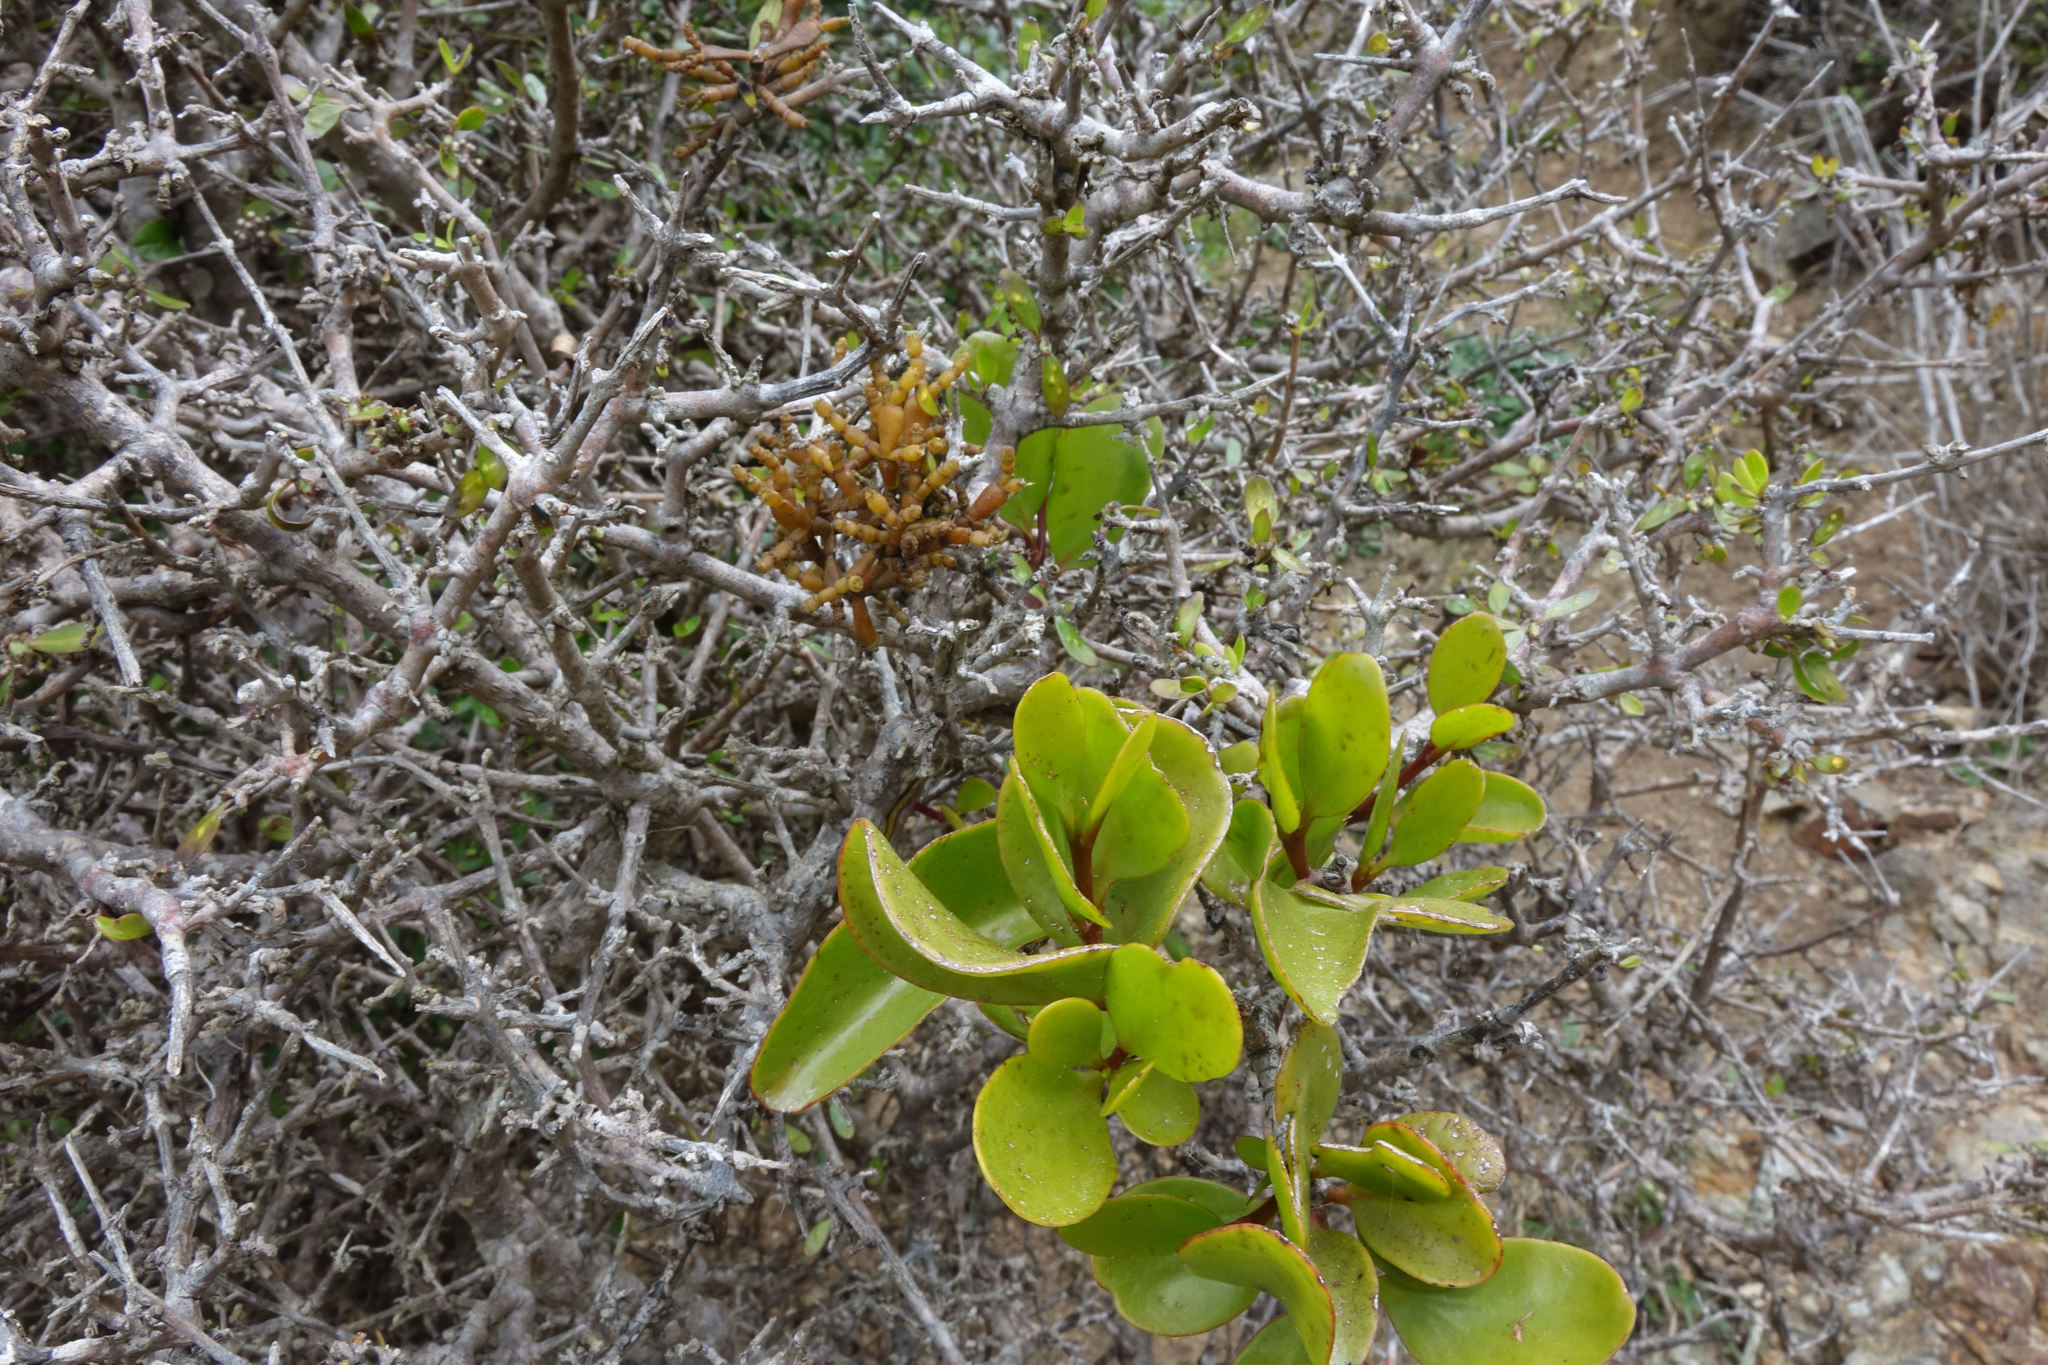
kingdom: Plantae
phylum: Tracheophyta
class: Magnoliopsida
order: Santalales
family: Loranthaceae
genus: Ileostylus
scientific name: Ileostylus micranthus
